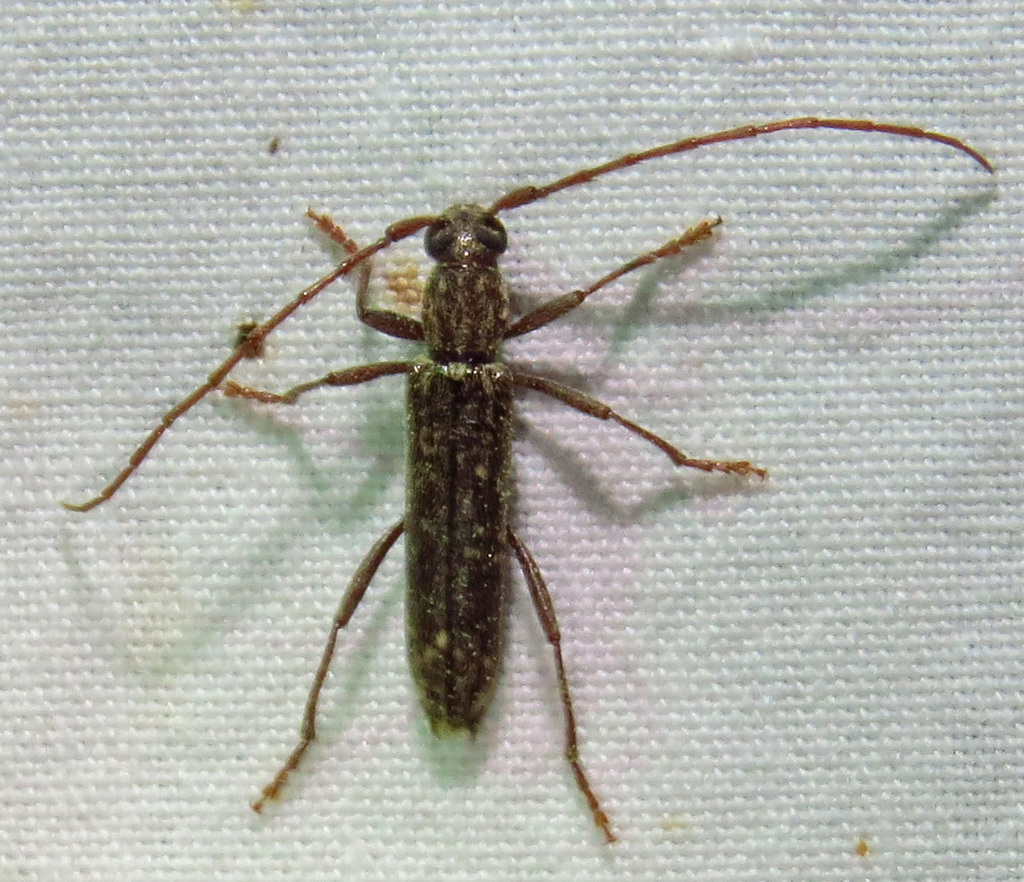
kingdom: Animalia
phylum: Arthropoda
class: Insecta
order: Coleoptera
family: Cerambycidae
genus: Anelaphus
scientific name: Anelaphus villosus
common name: Twig pruner
